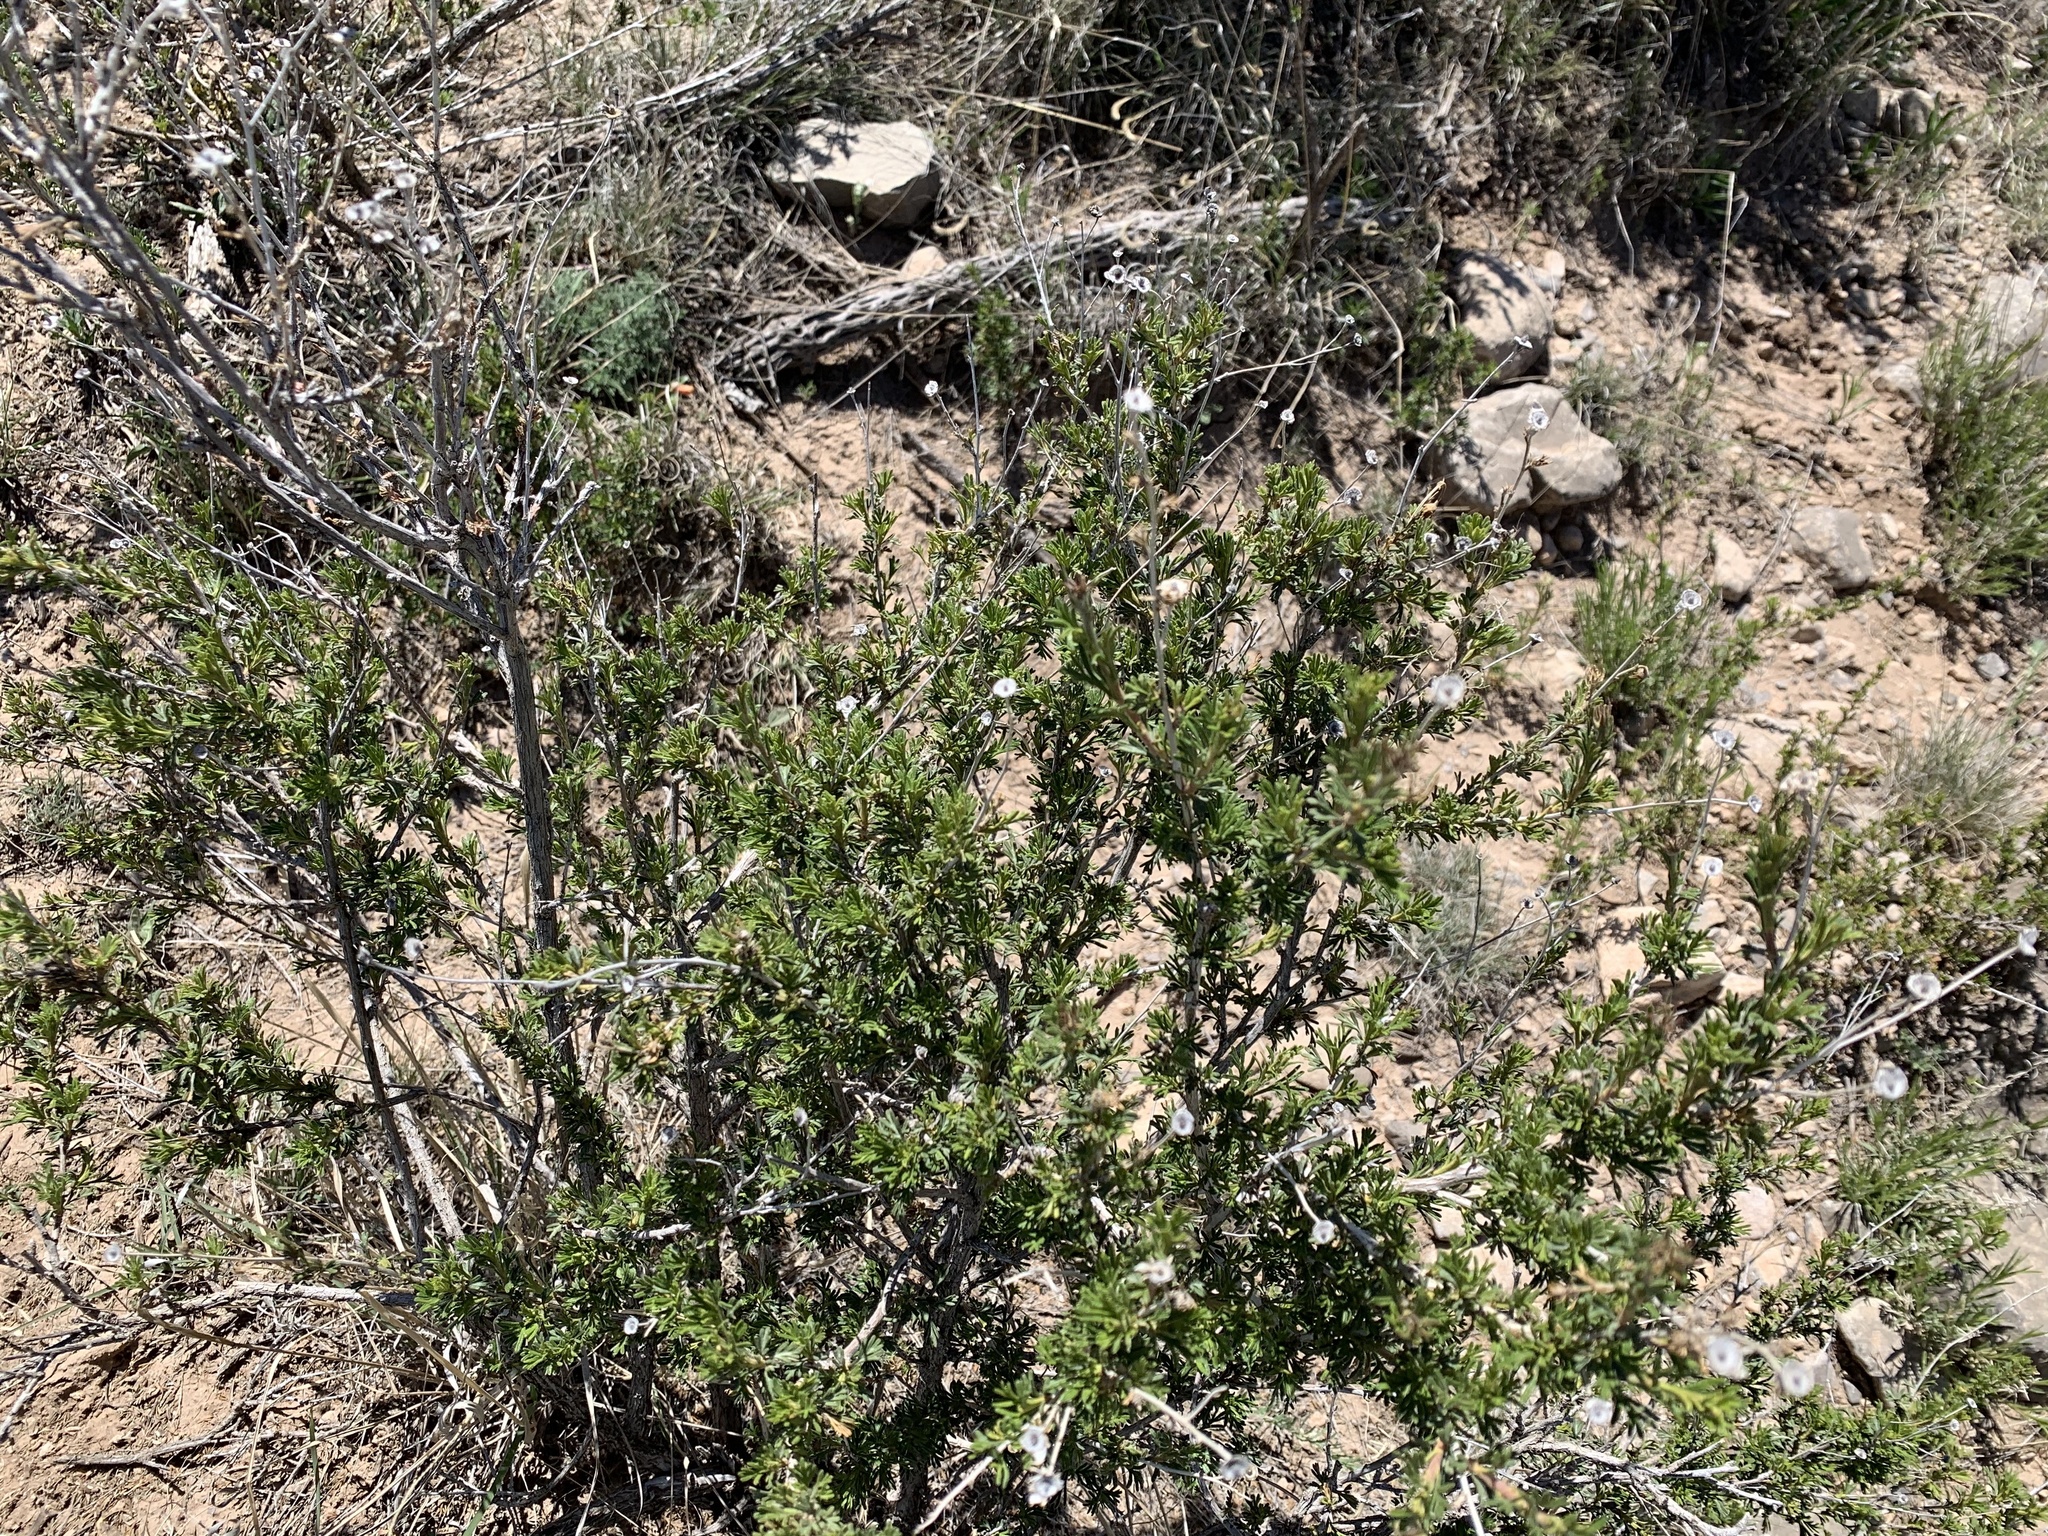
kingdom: Plantae
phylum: Tracheophyta
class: Magnoliopsida
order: Rosales
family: Rosaceae
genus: Fallugia
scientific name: Fallugia paradoxa
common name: Apache-plume
